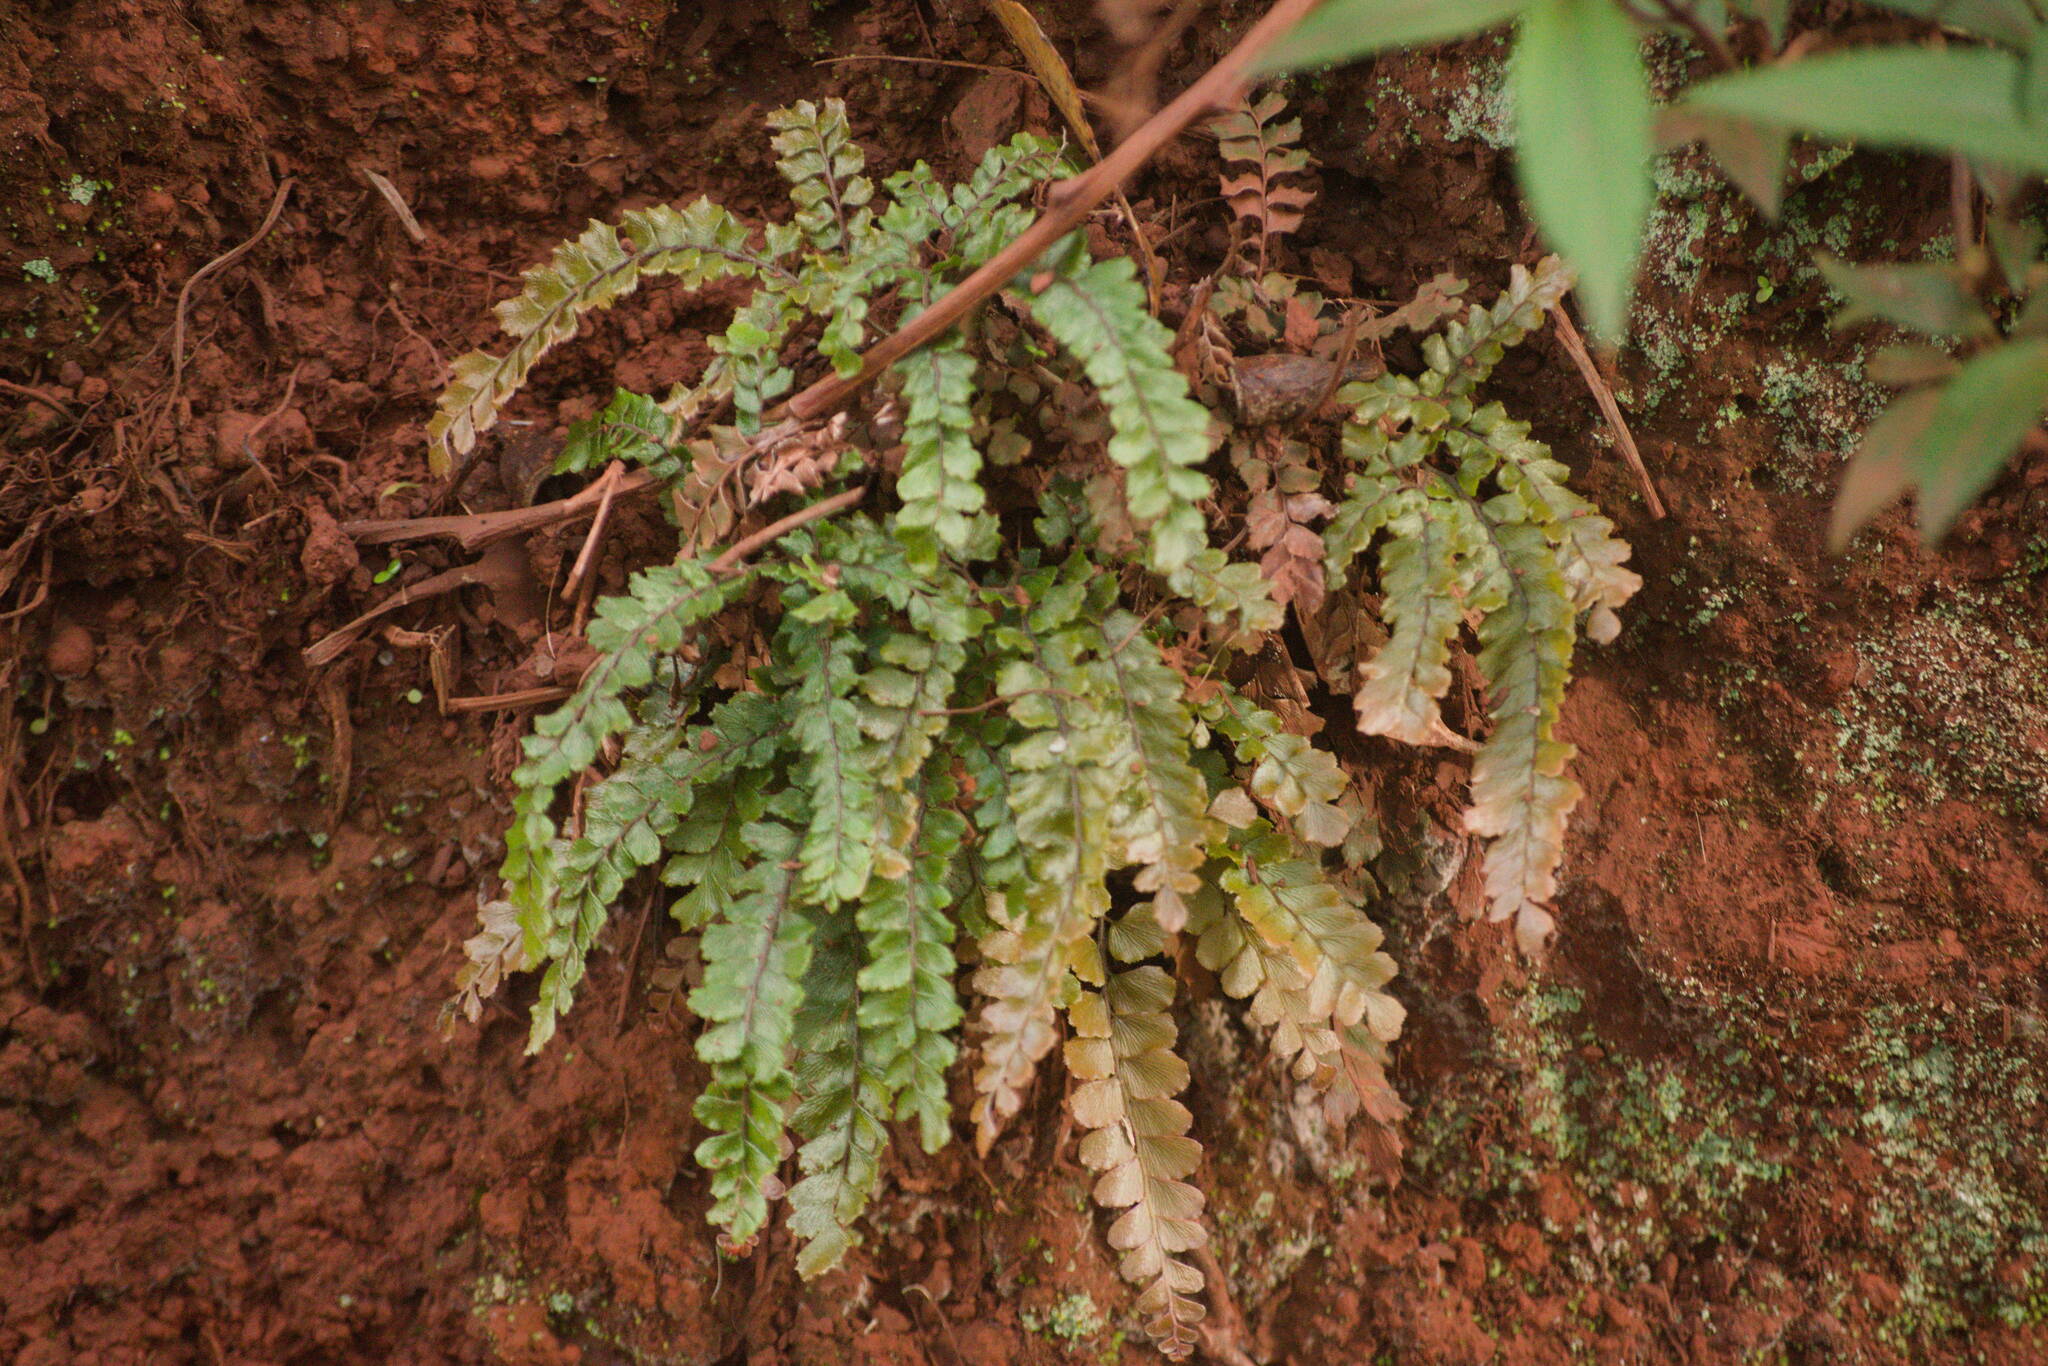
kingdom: Plantae
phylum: Tracheophyta
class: Polypodiopsida
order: Polypodiales
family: Pteridaceae
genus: Adiantum
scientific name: Adiantum hispidulum
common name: Rough maidenhair
